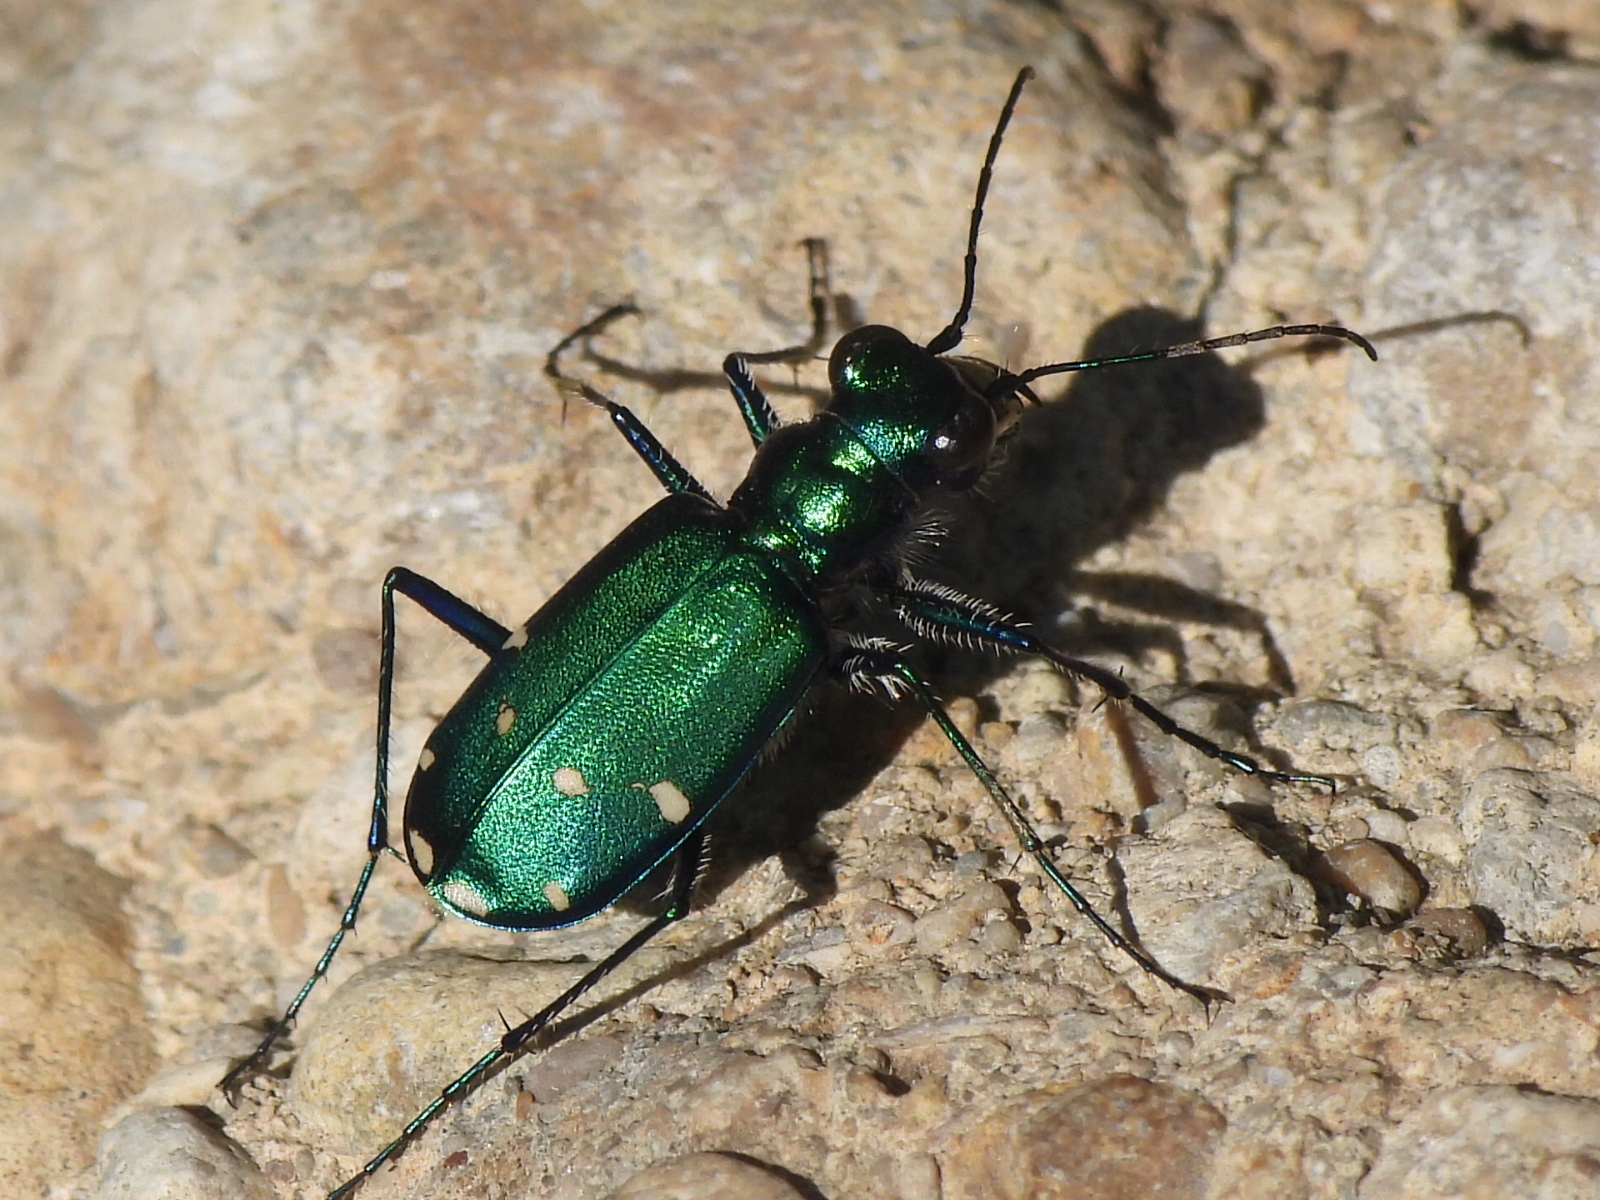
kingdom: Animalia
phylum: Arthropoda
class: Insecta
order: Coleoptera
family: Carabidae
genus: Cicindela
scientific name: Cicindela sexguttata
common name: Six-spotted tiger beetle
